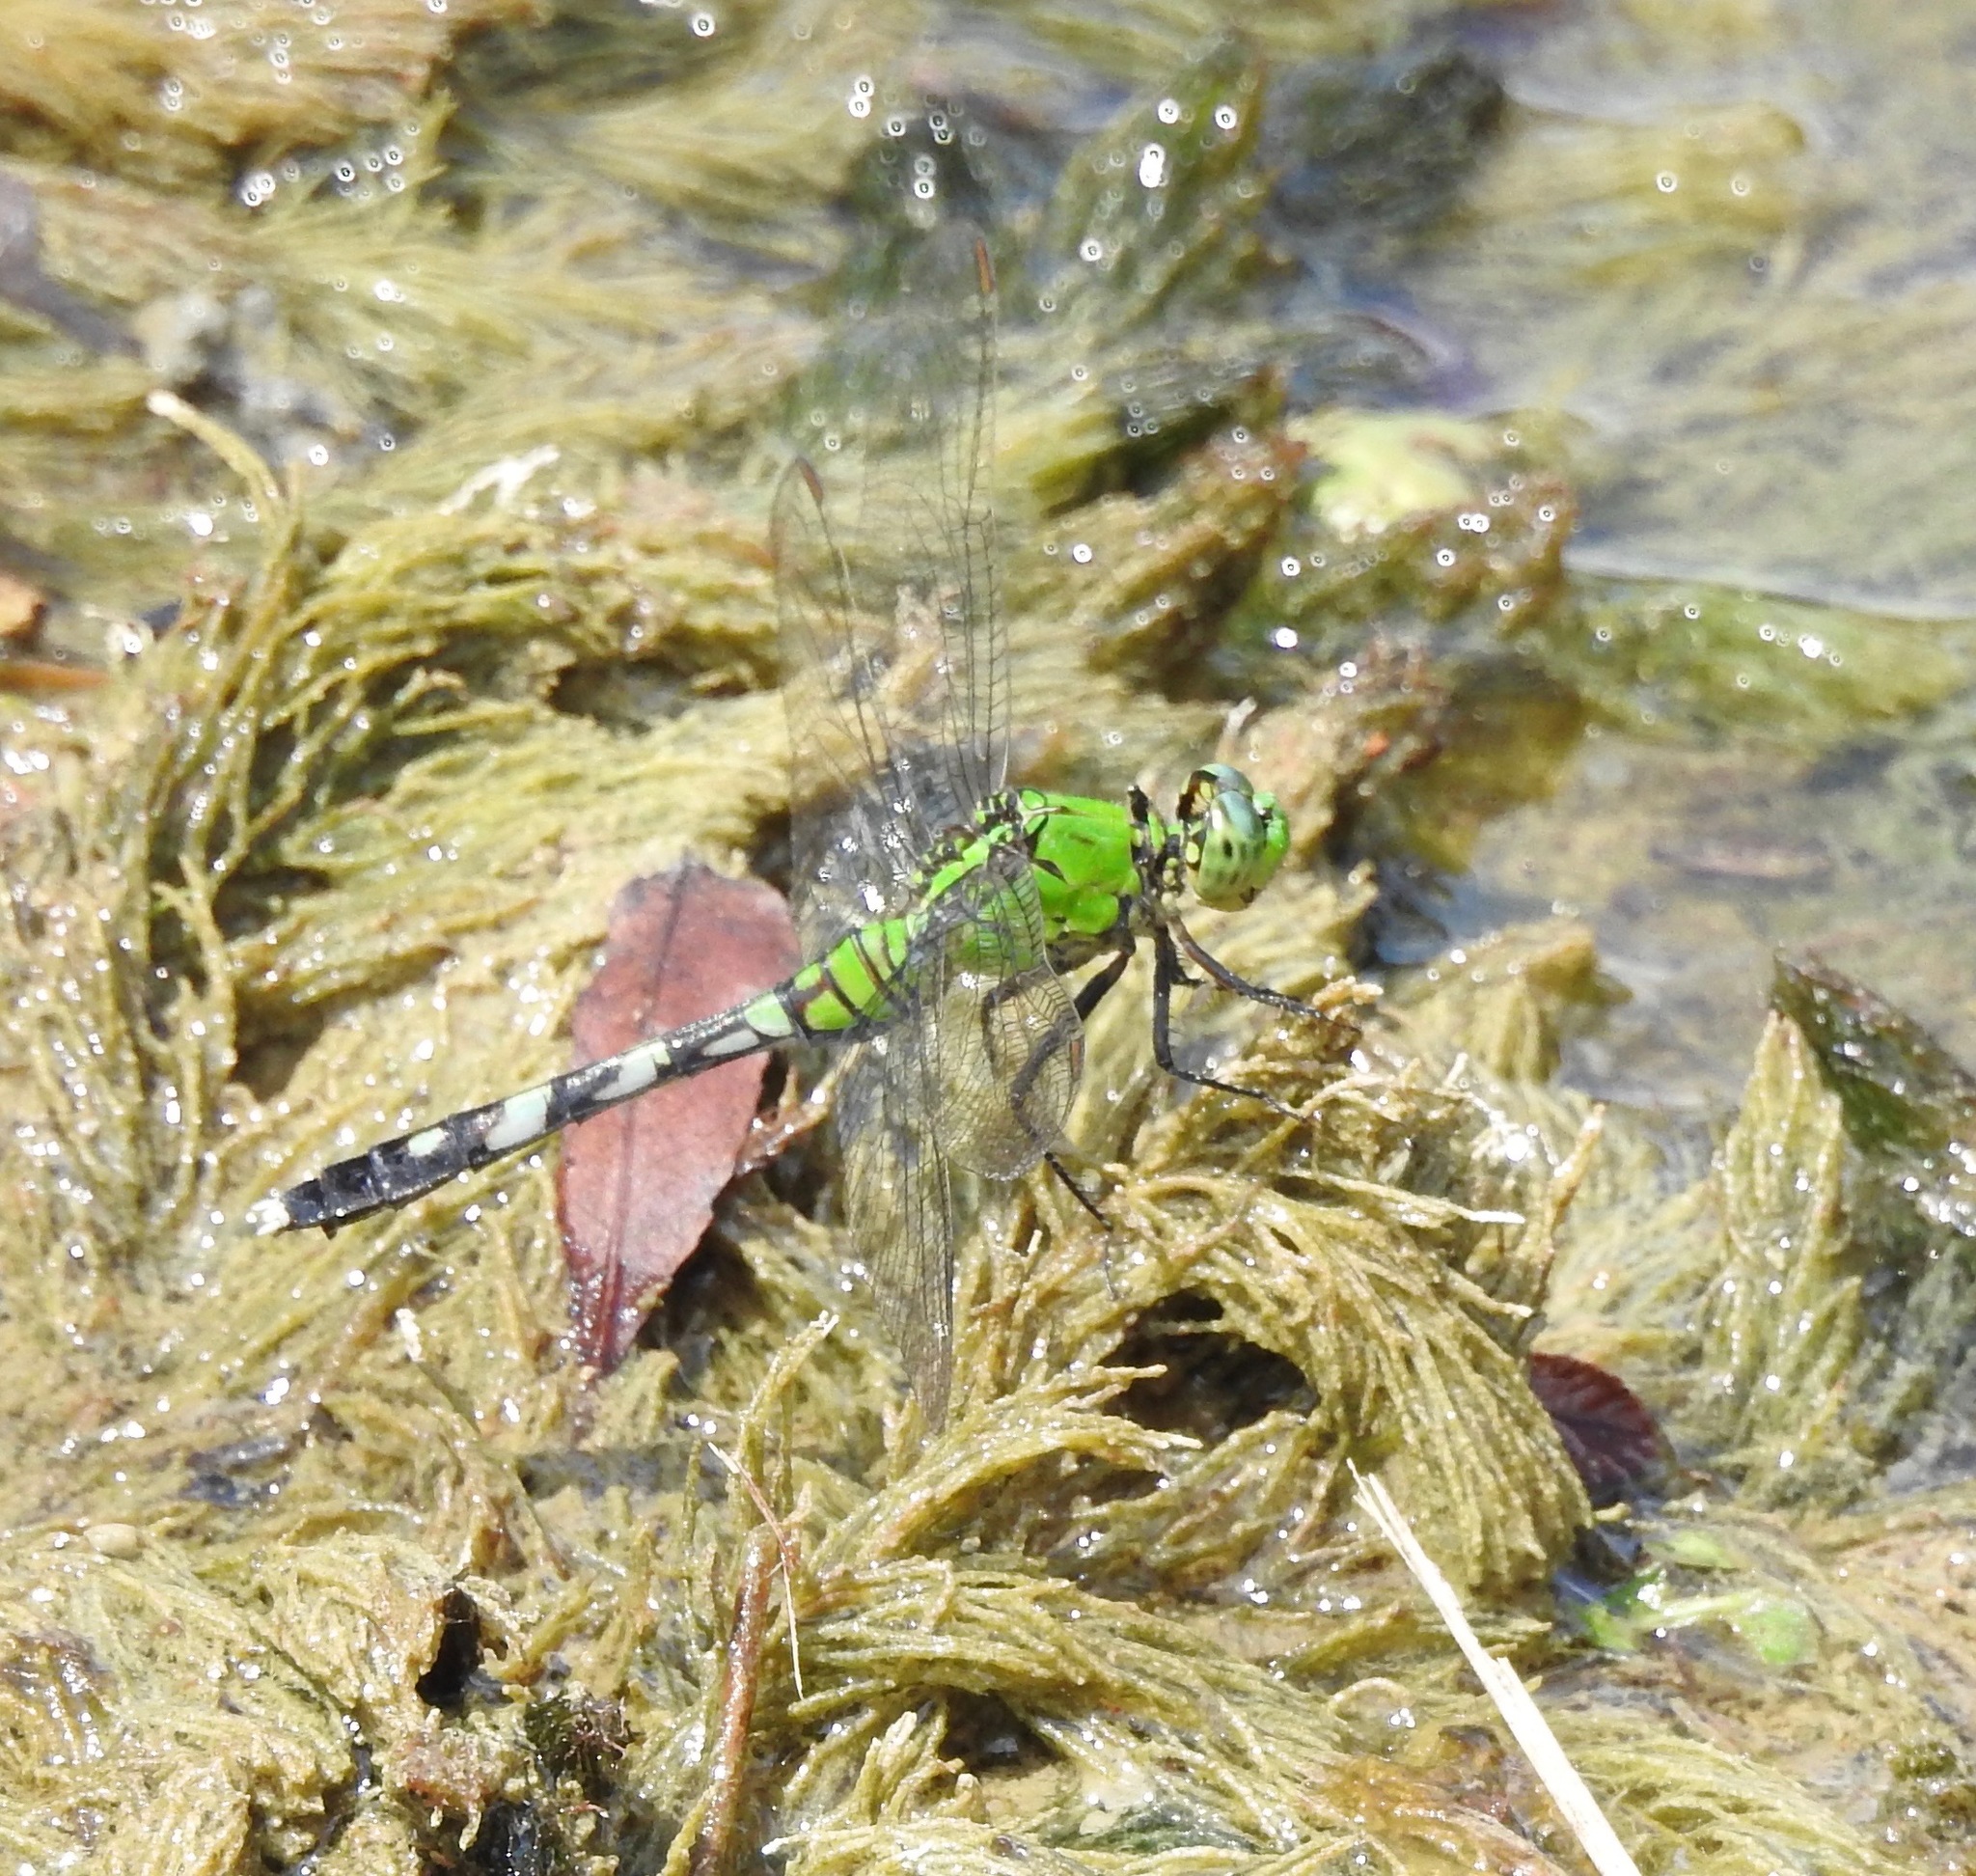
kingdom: Animalia
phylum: Arthropoda
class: Insecta
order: Odonata
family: Libellulidae
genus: Erythemis
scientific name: Erythemis simplicicollis
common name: Eastern pondhawk
